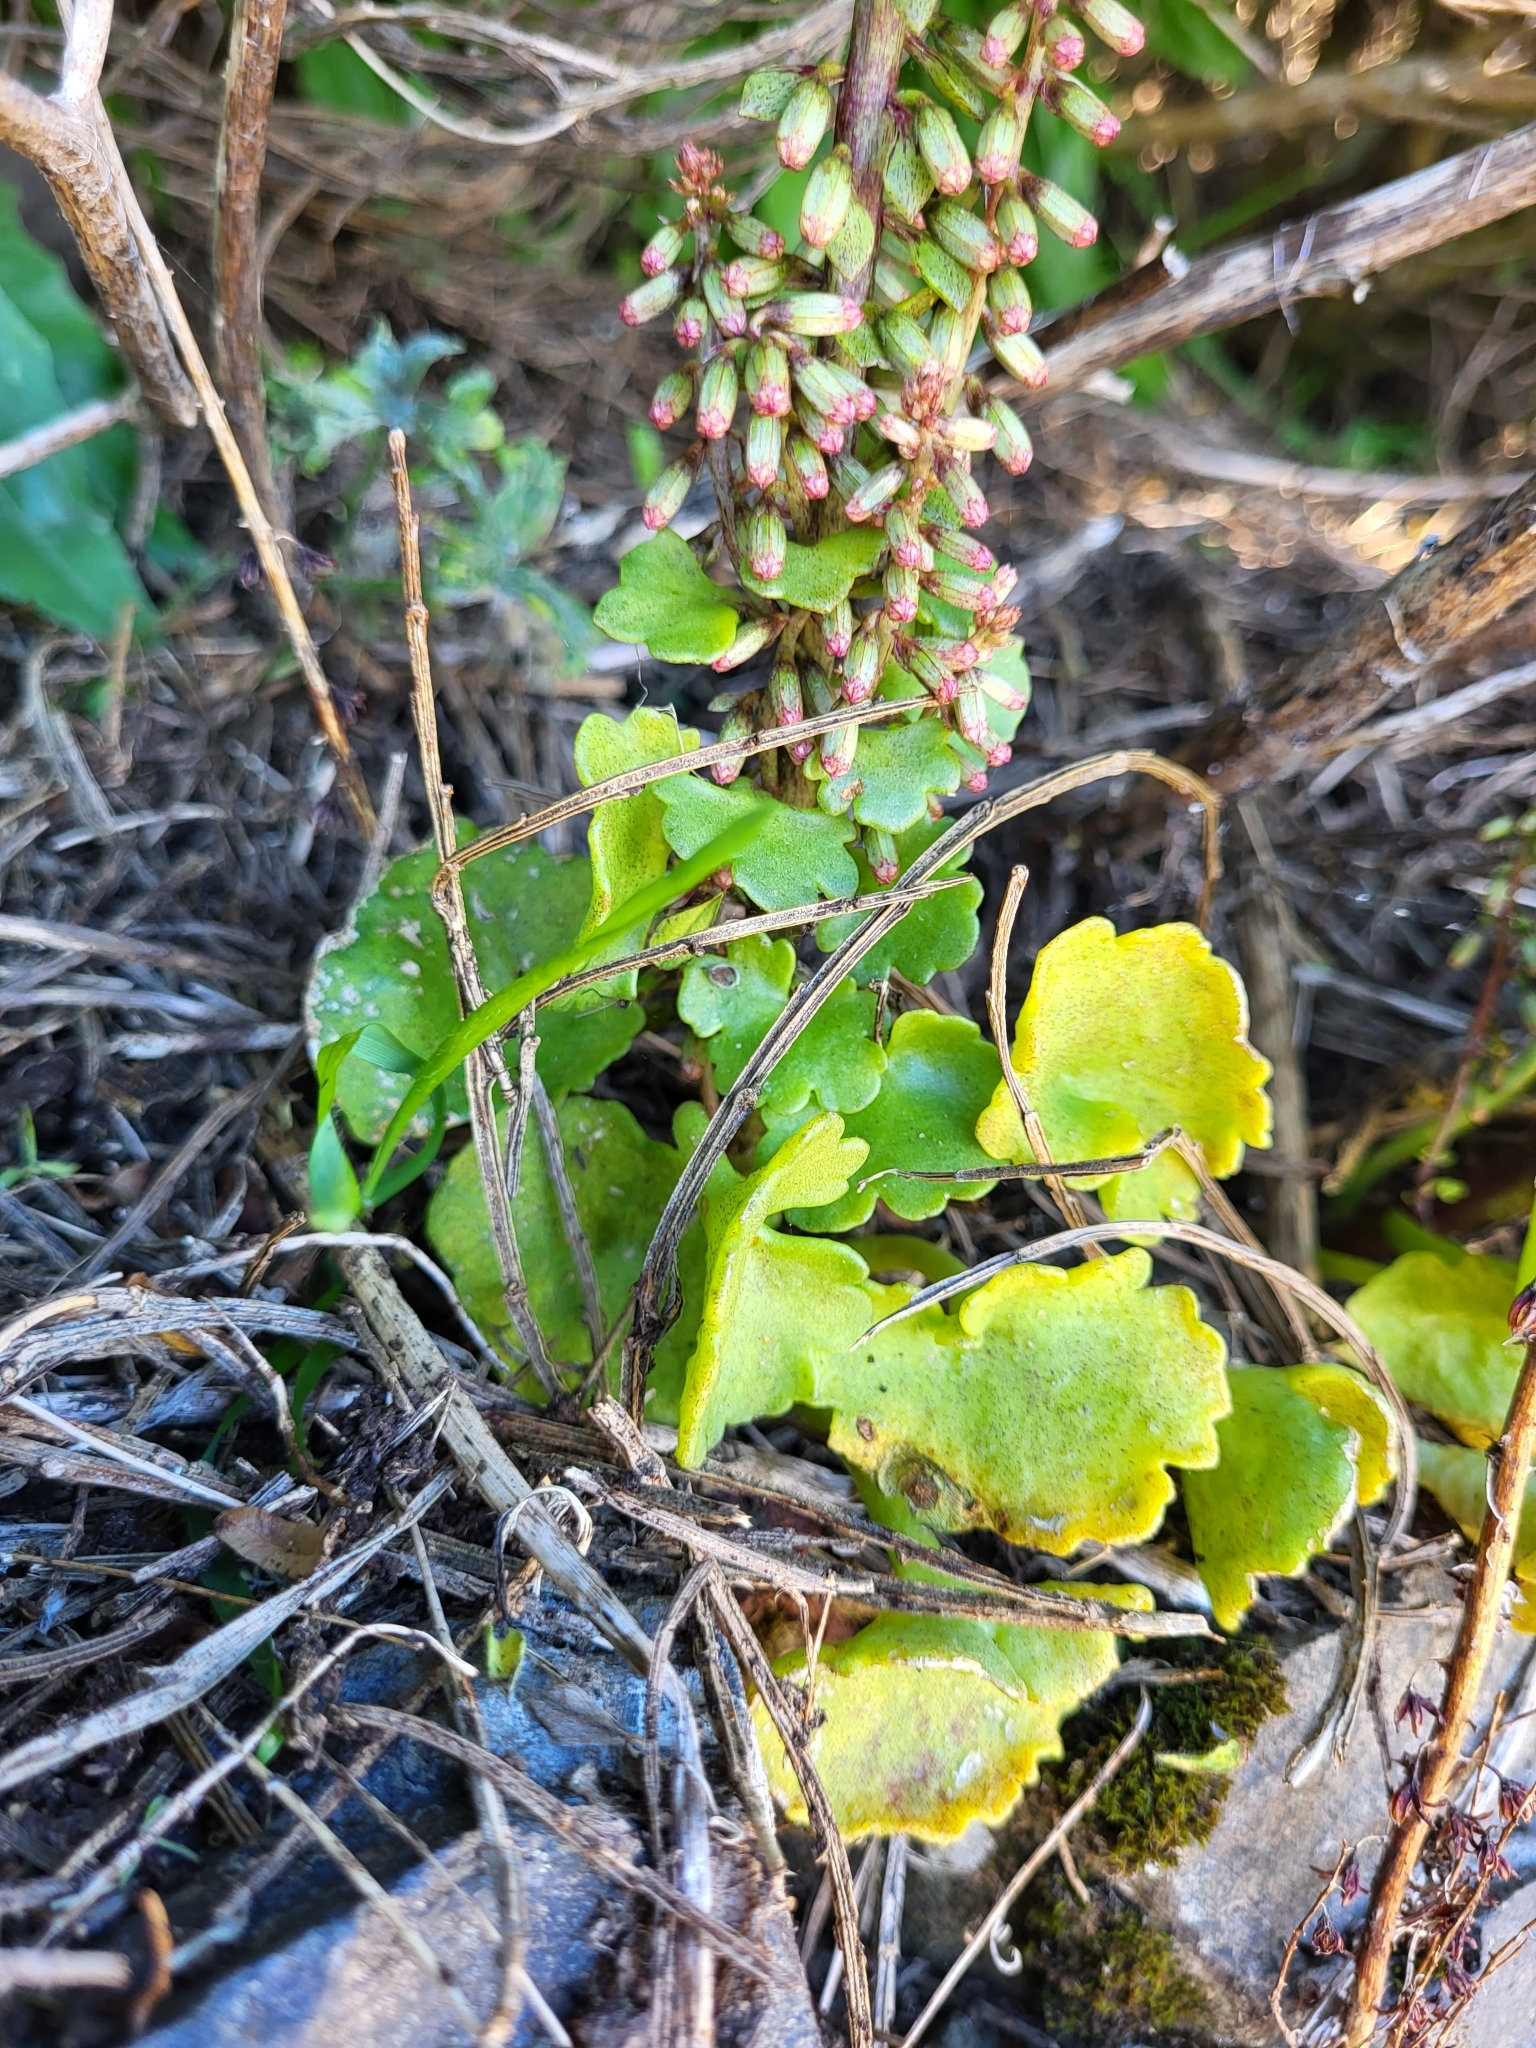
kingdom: Plantae
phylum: Tracheophyta
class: Magnoliopsida
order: Saxifragales
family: Crassulaceae
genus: Umbilicus
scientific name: Umbilicus rupestris
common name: Navelwort
